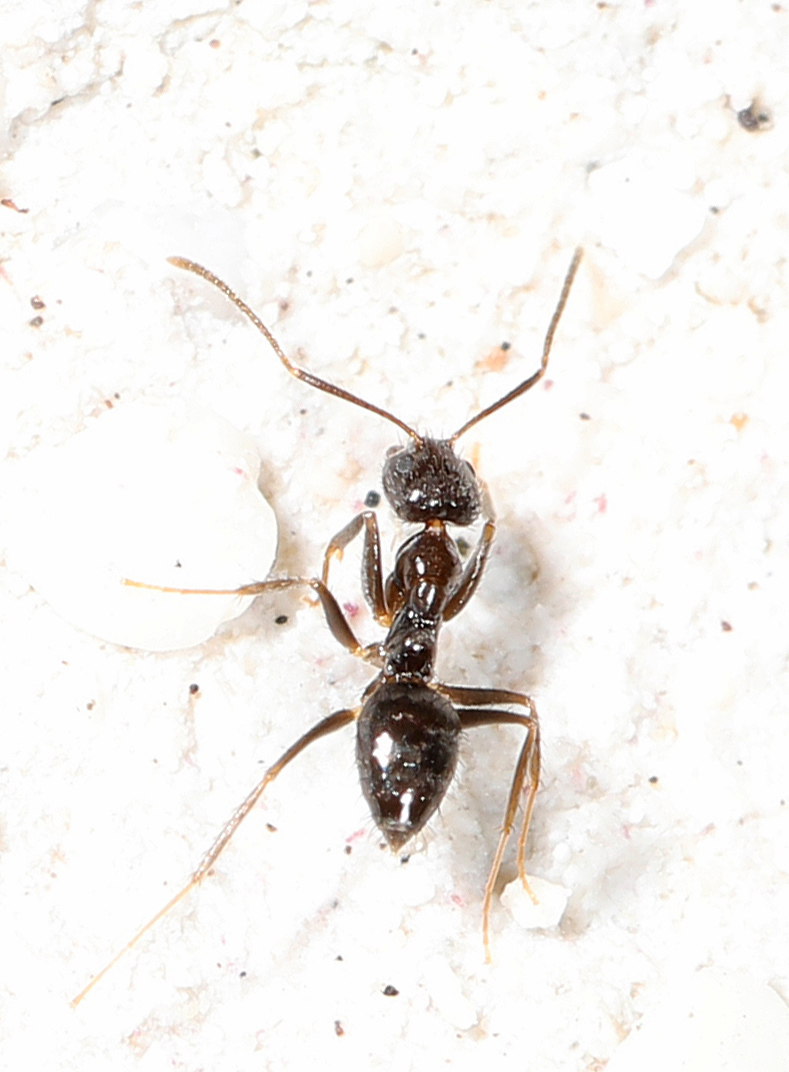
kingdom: Animalia
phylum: Arthropoda
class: Insecta
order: Hymenoptera
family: Formicidae
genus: Paratrechina
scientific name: Paratrechina bourbonica
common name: Ant
